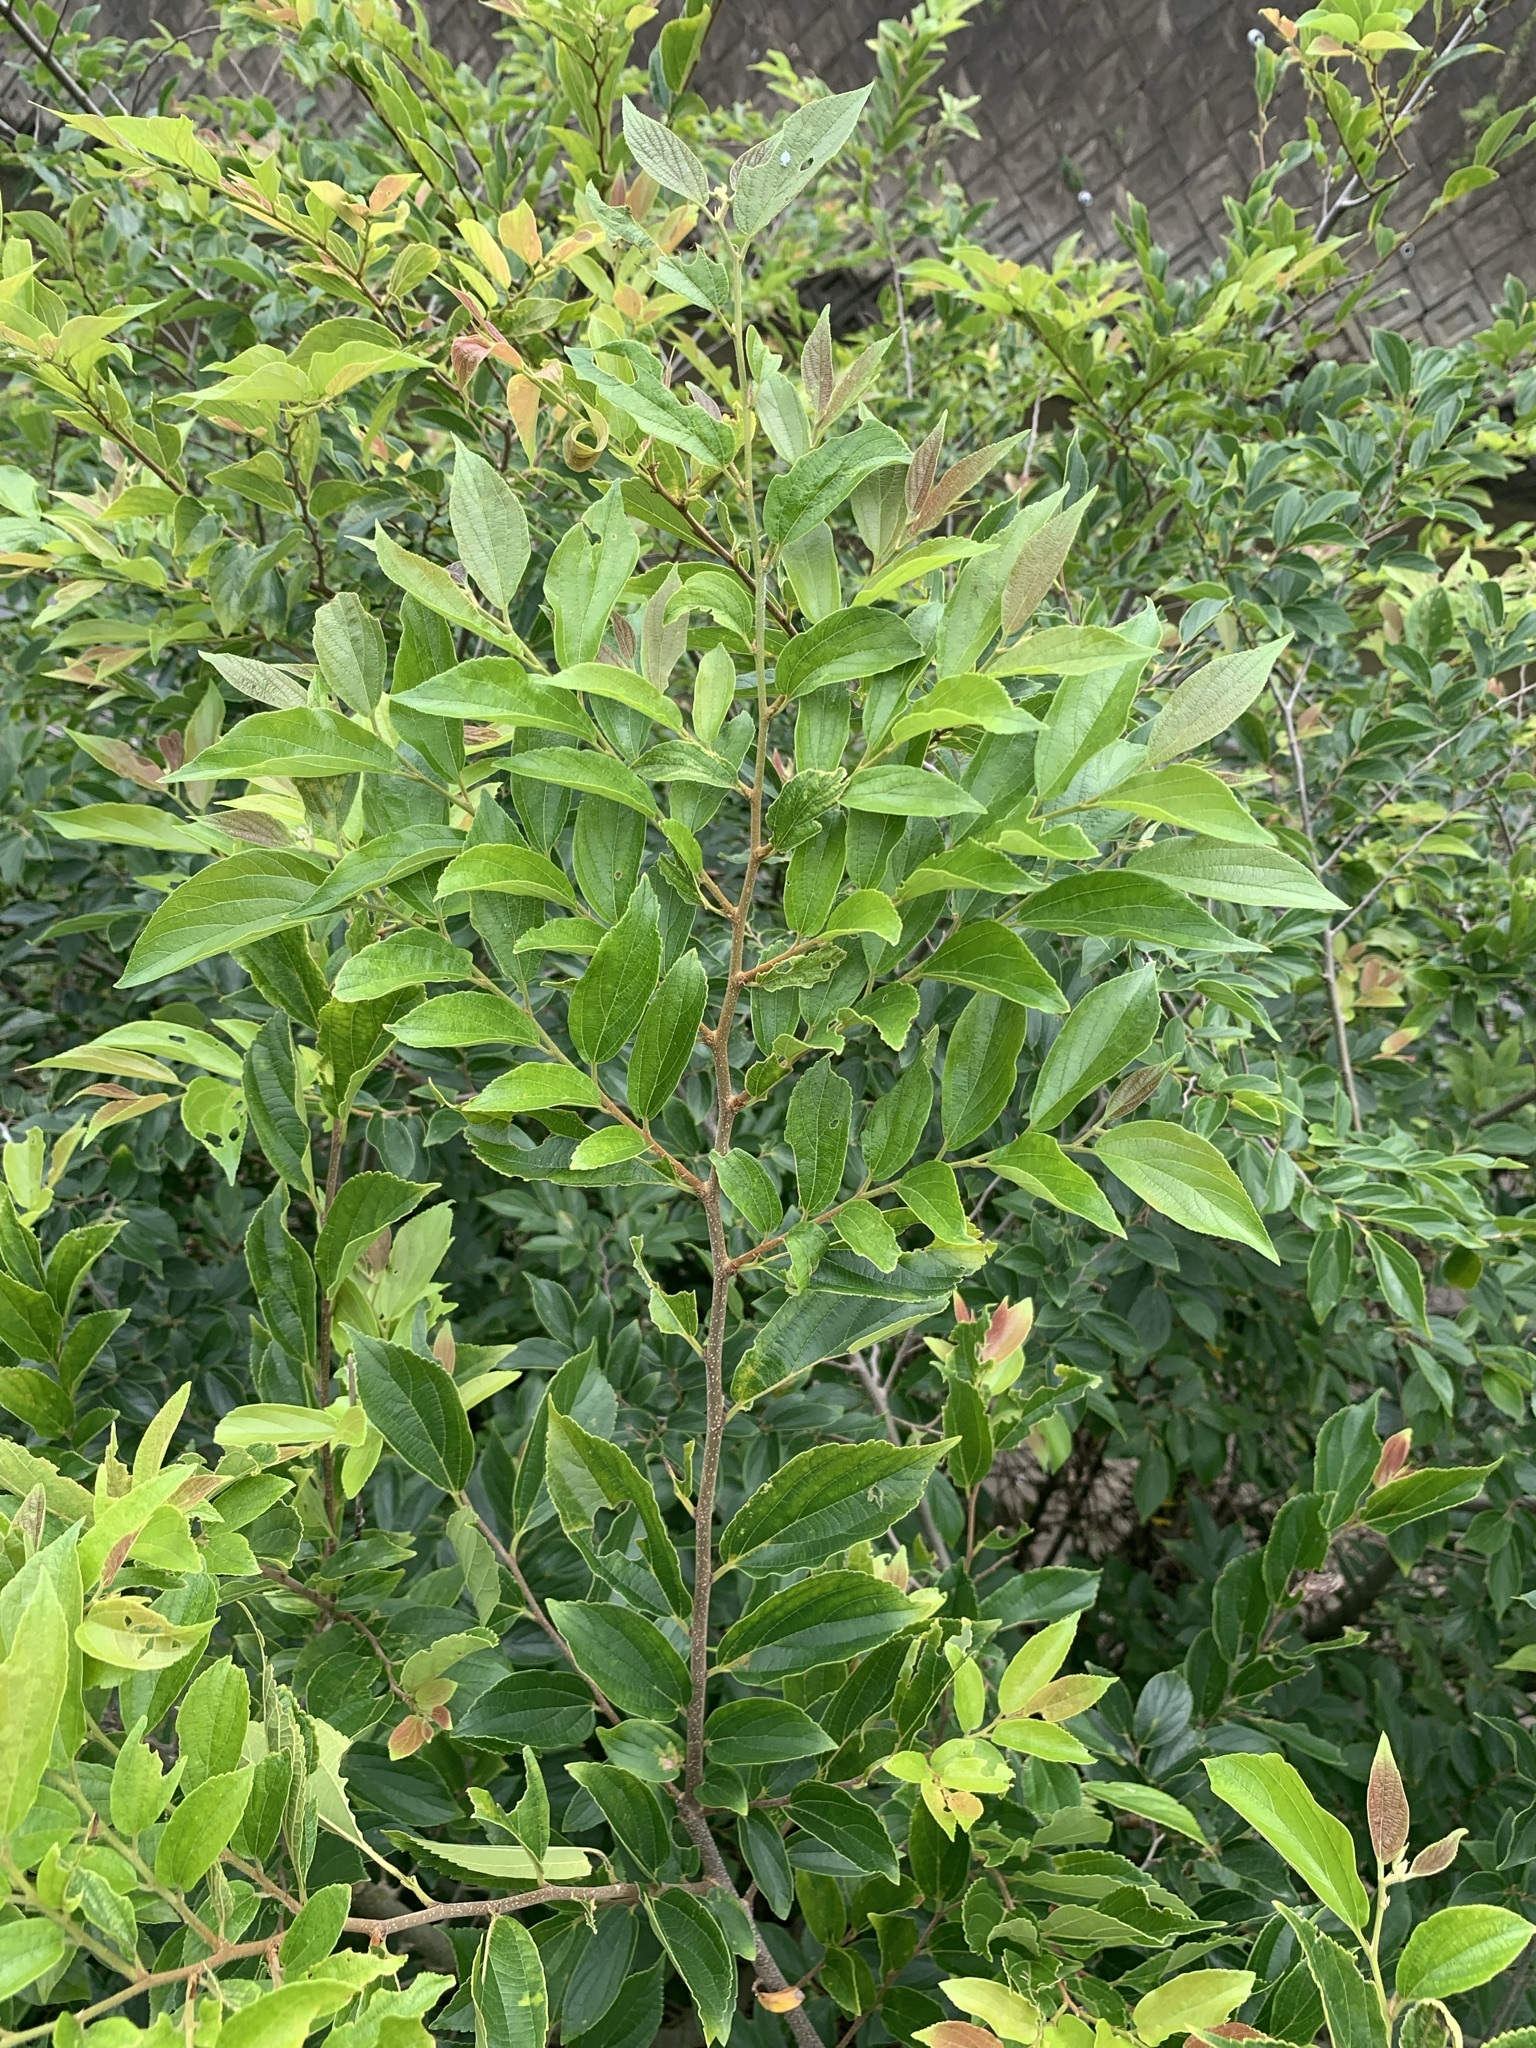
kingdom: Plantae
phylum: Tracheophyta
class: Magnoliopsida
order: Rosales
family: Cannabaceae
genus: Celtis
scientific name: Celtis sinensis
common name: Chinese hackberry
